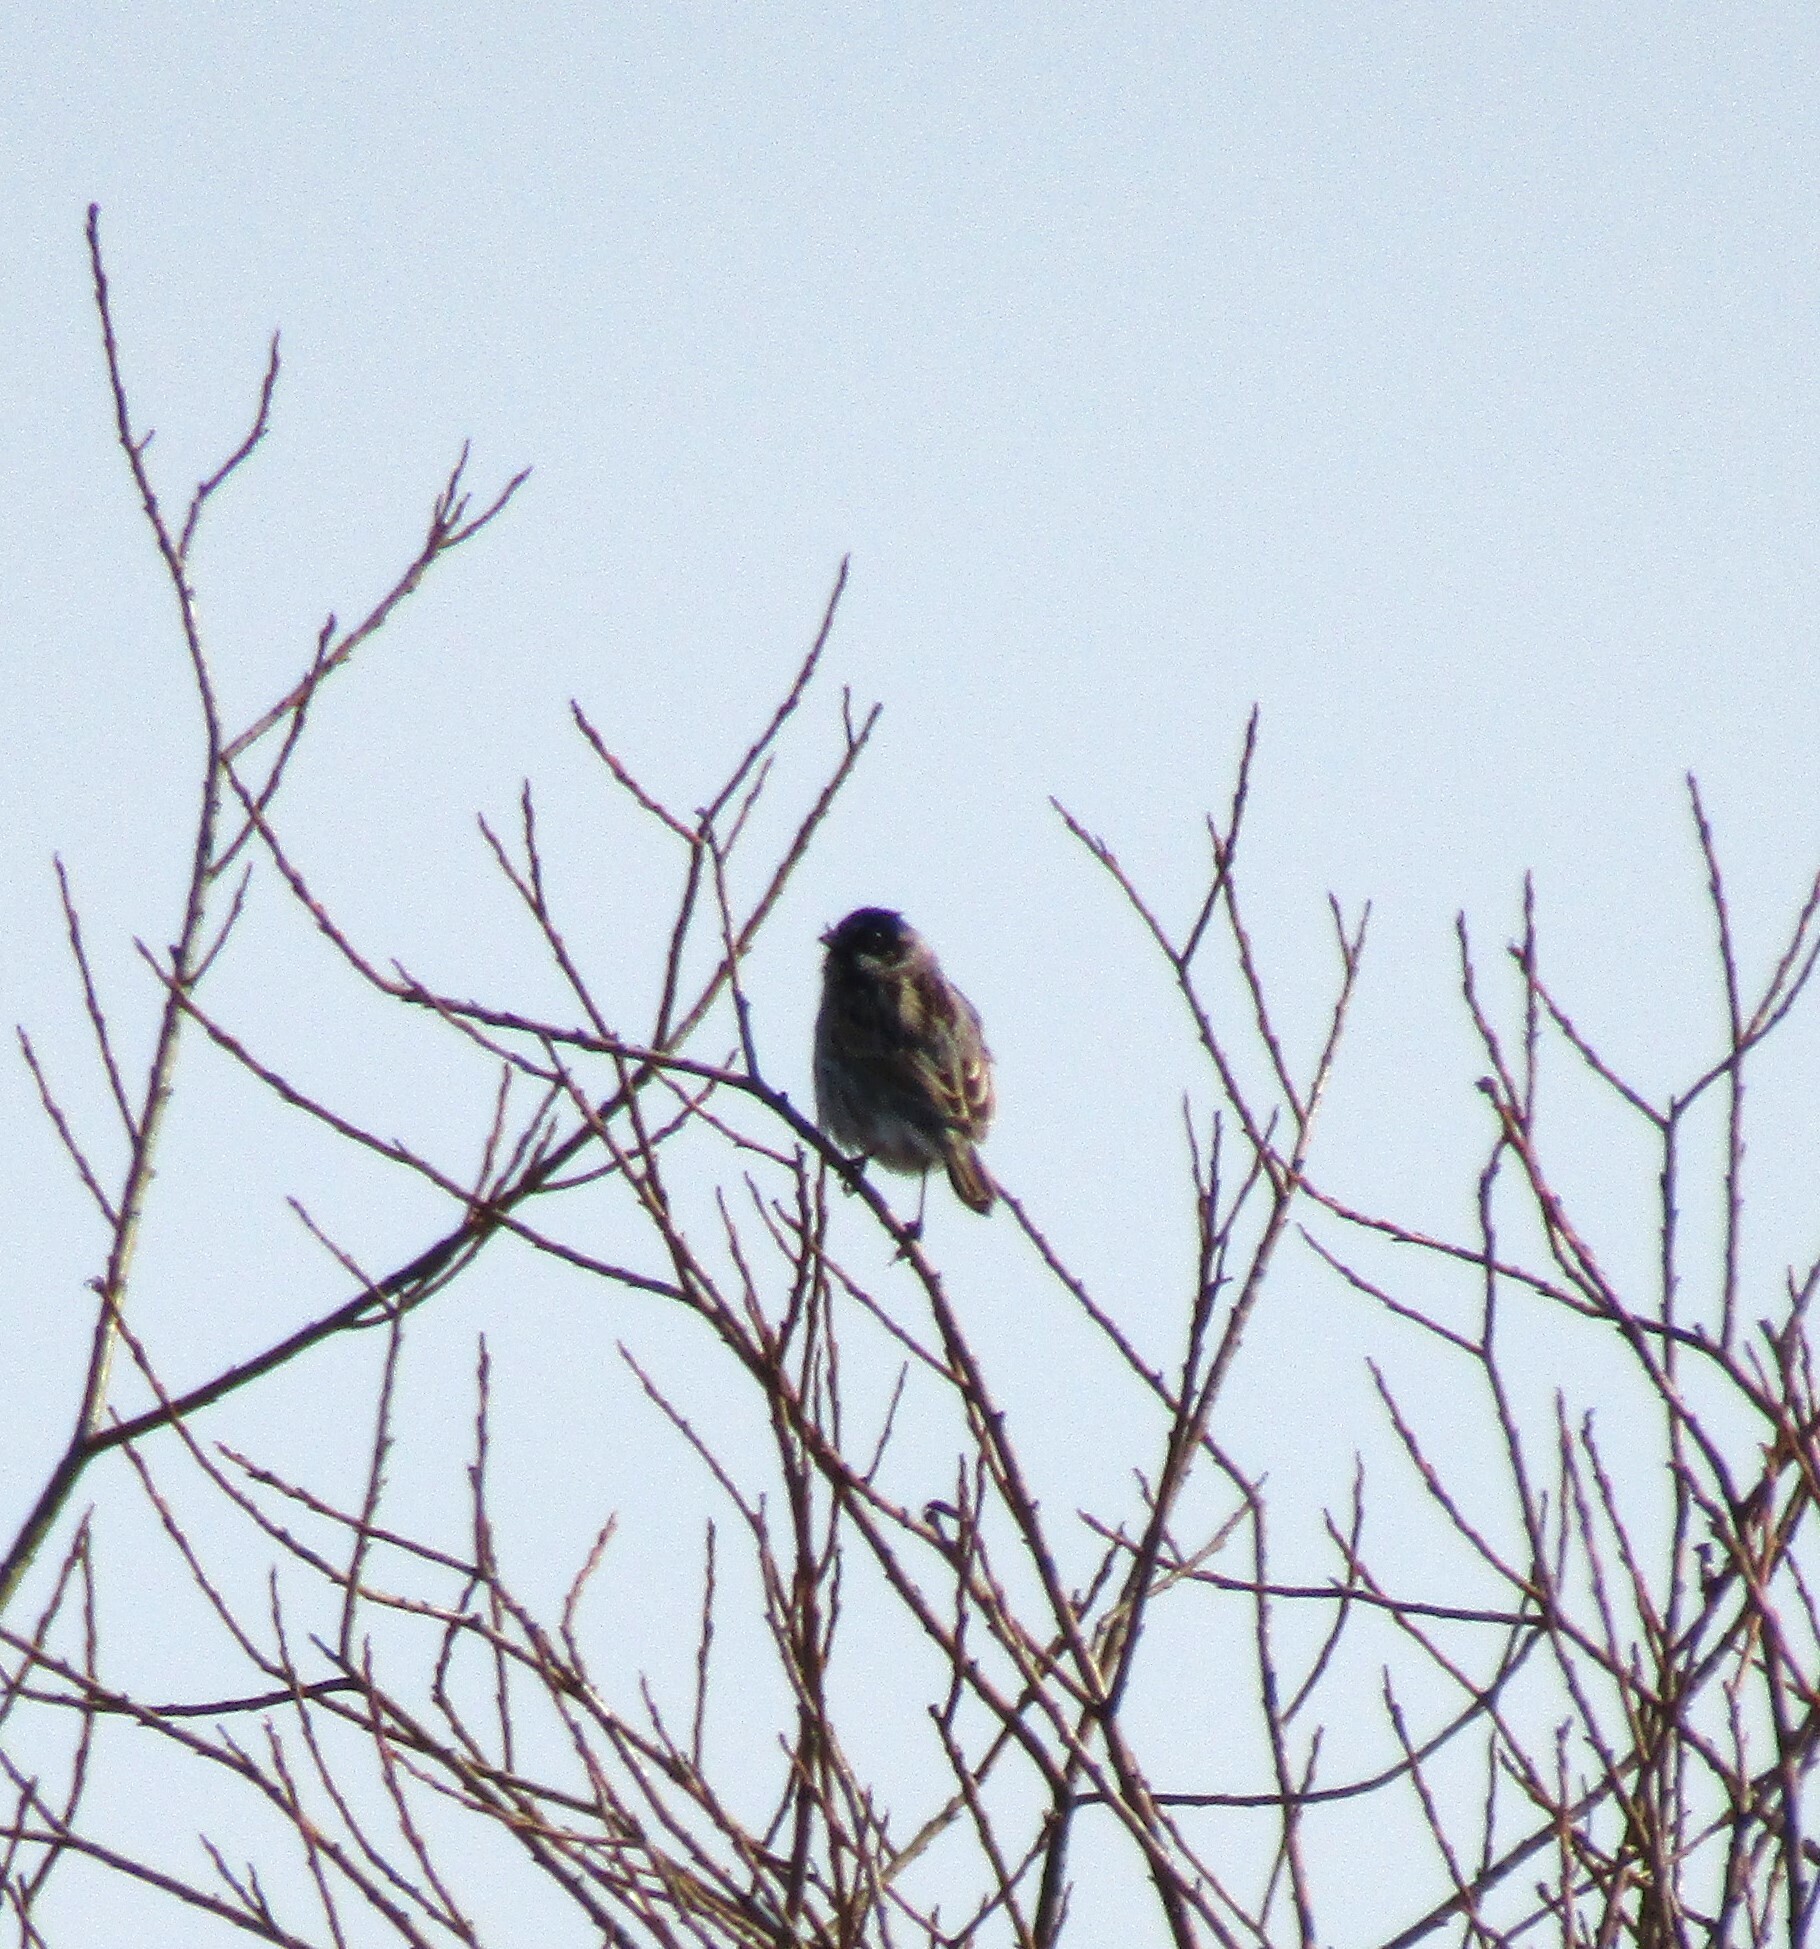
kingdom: Animalia
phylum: Chordata
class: Aves
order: Passeriformes
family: Emberizidae
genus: Emberiza
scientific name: Emberiza schoeniclus
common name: Reed bunting
